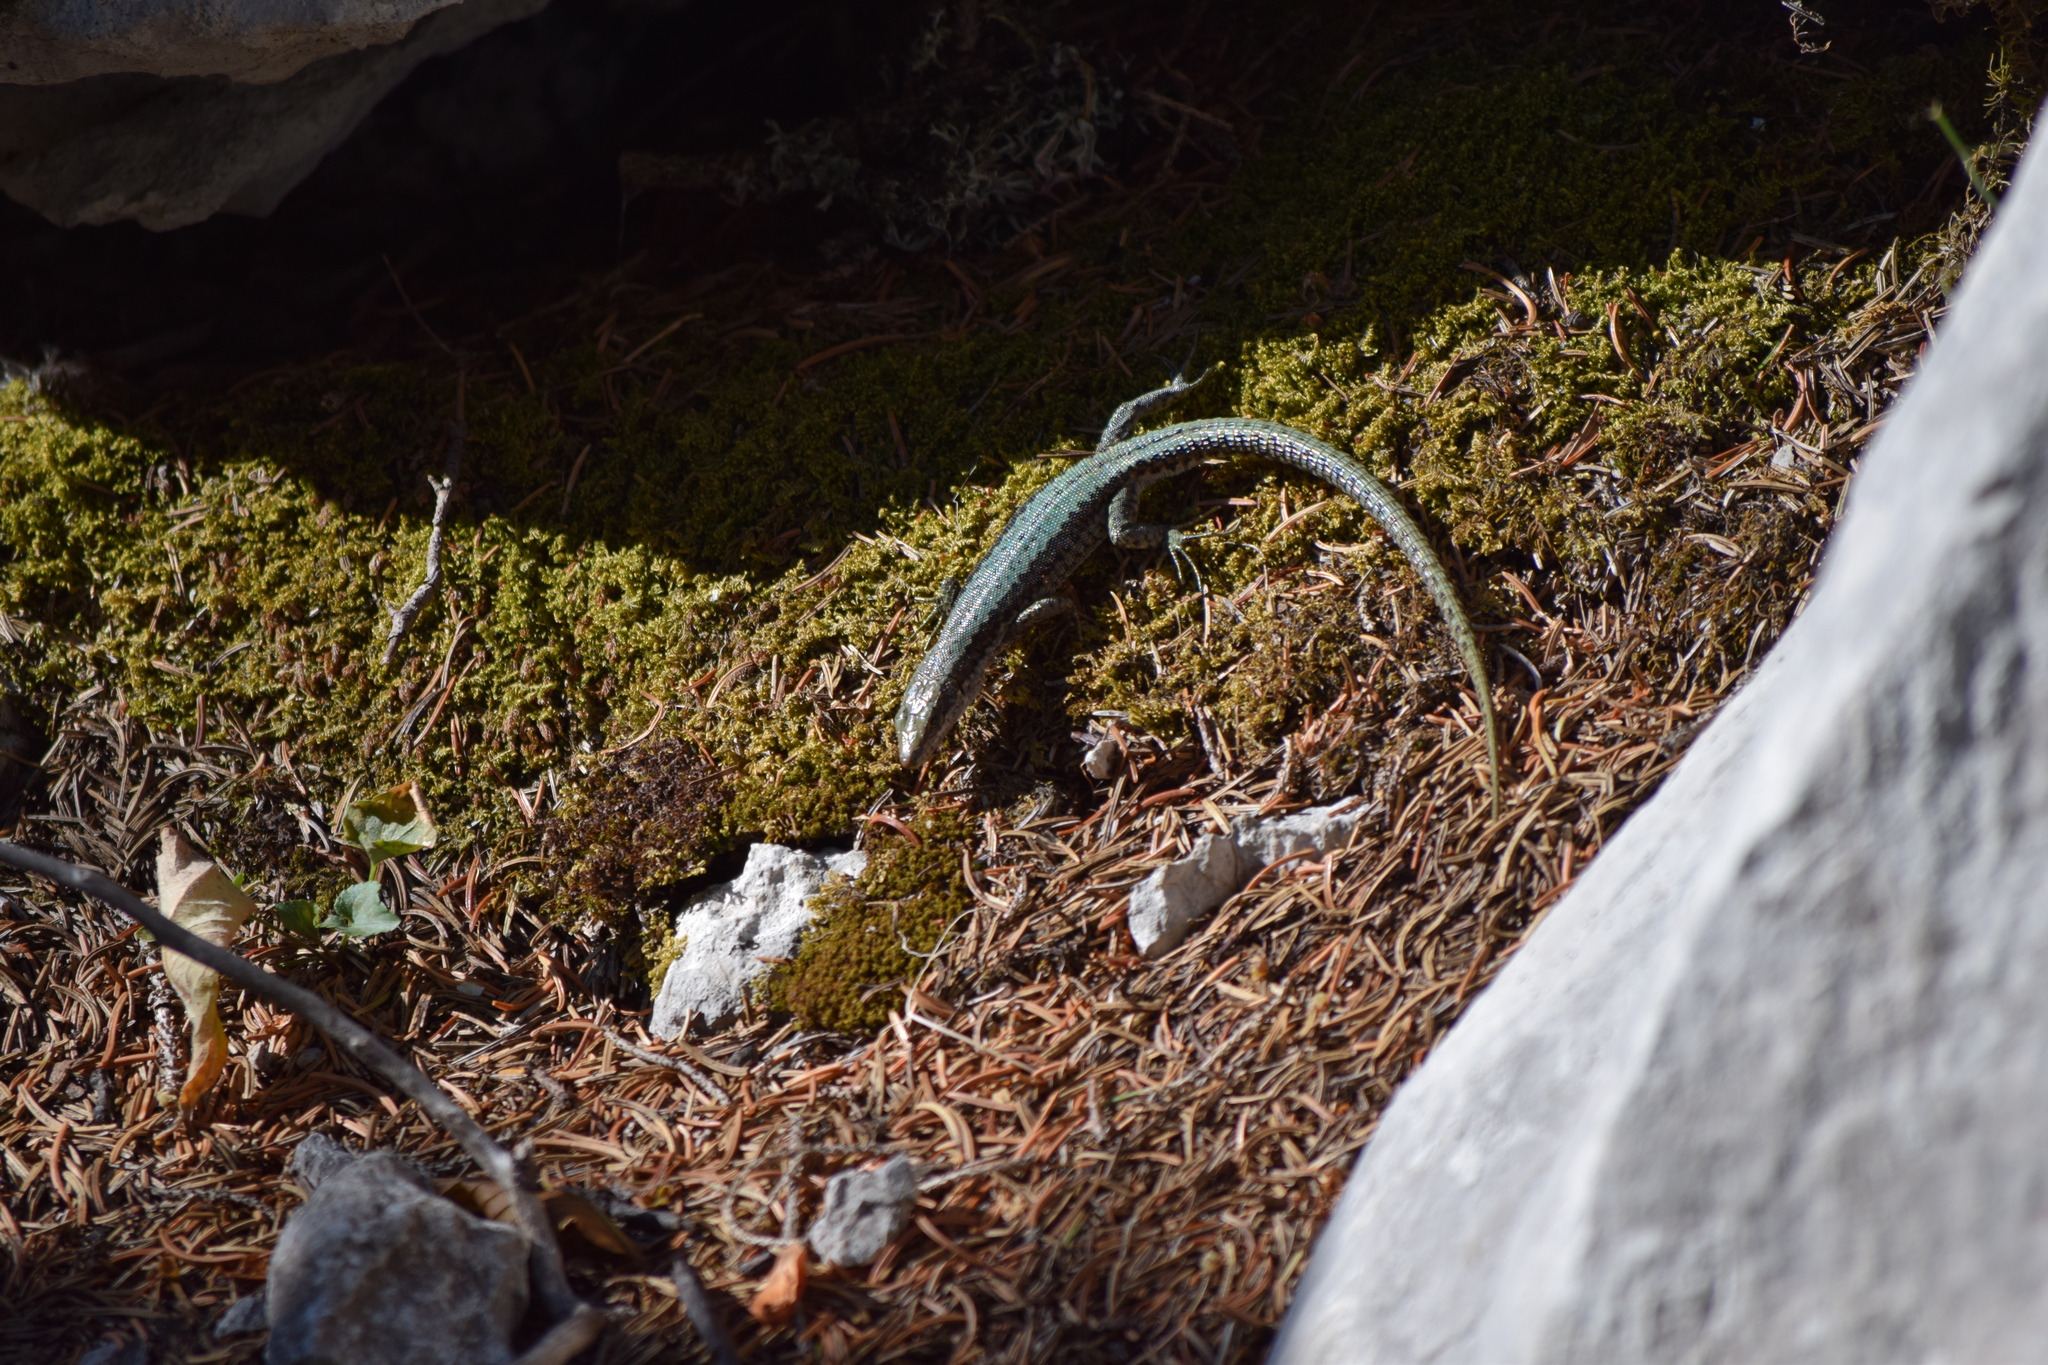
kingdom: Animalia
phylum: Chordata
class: Squamata
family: Lacertidae
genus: Iberolacerta
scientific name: Iberolacerta horvathi
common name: Horvath's rock lizard
